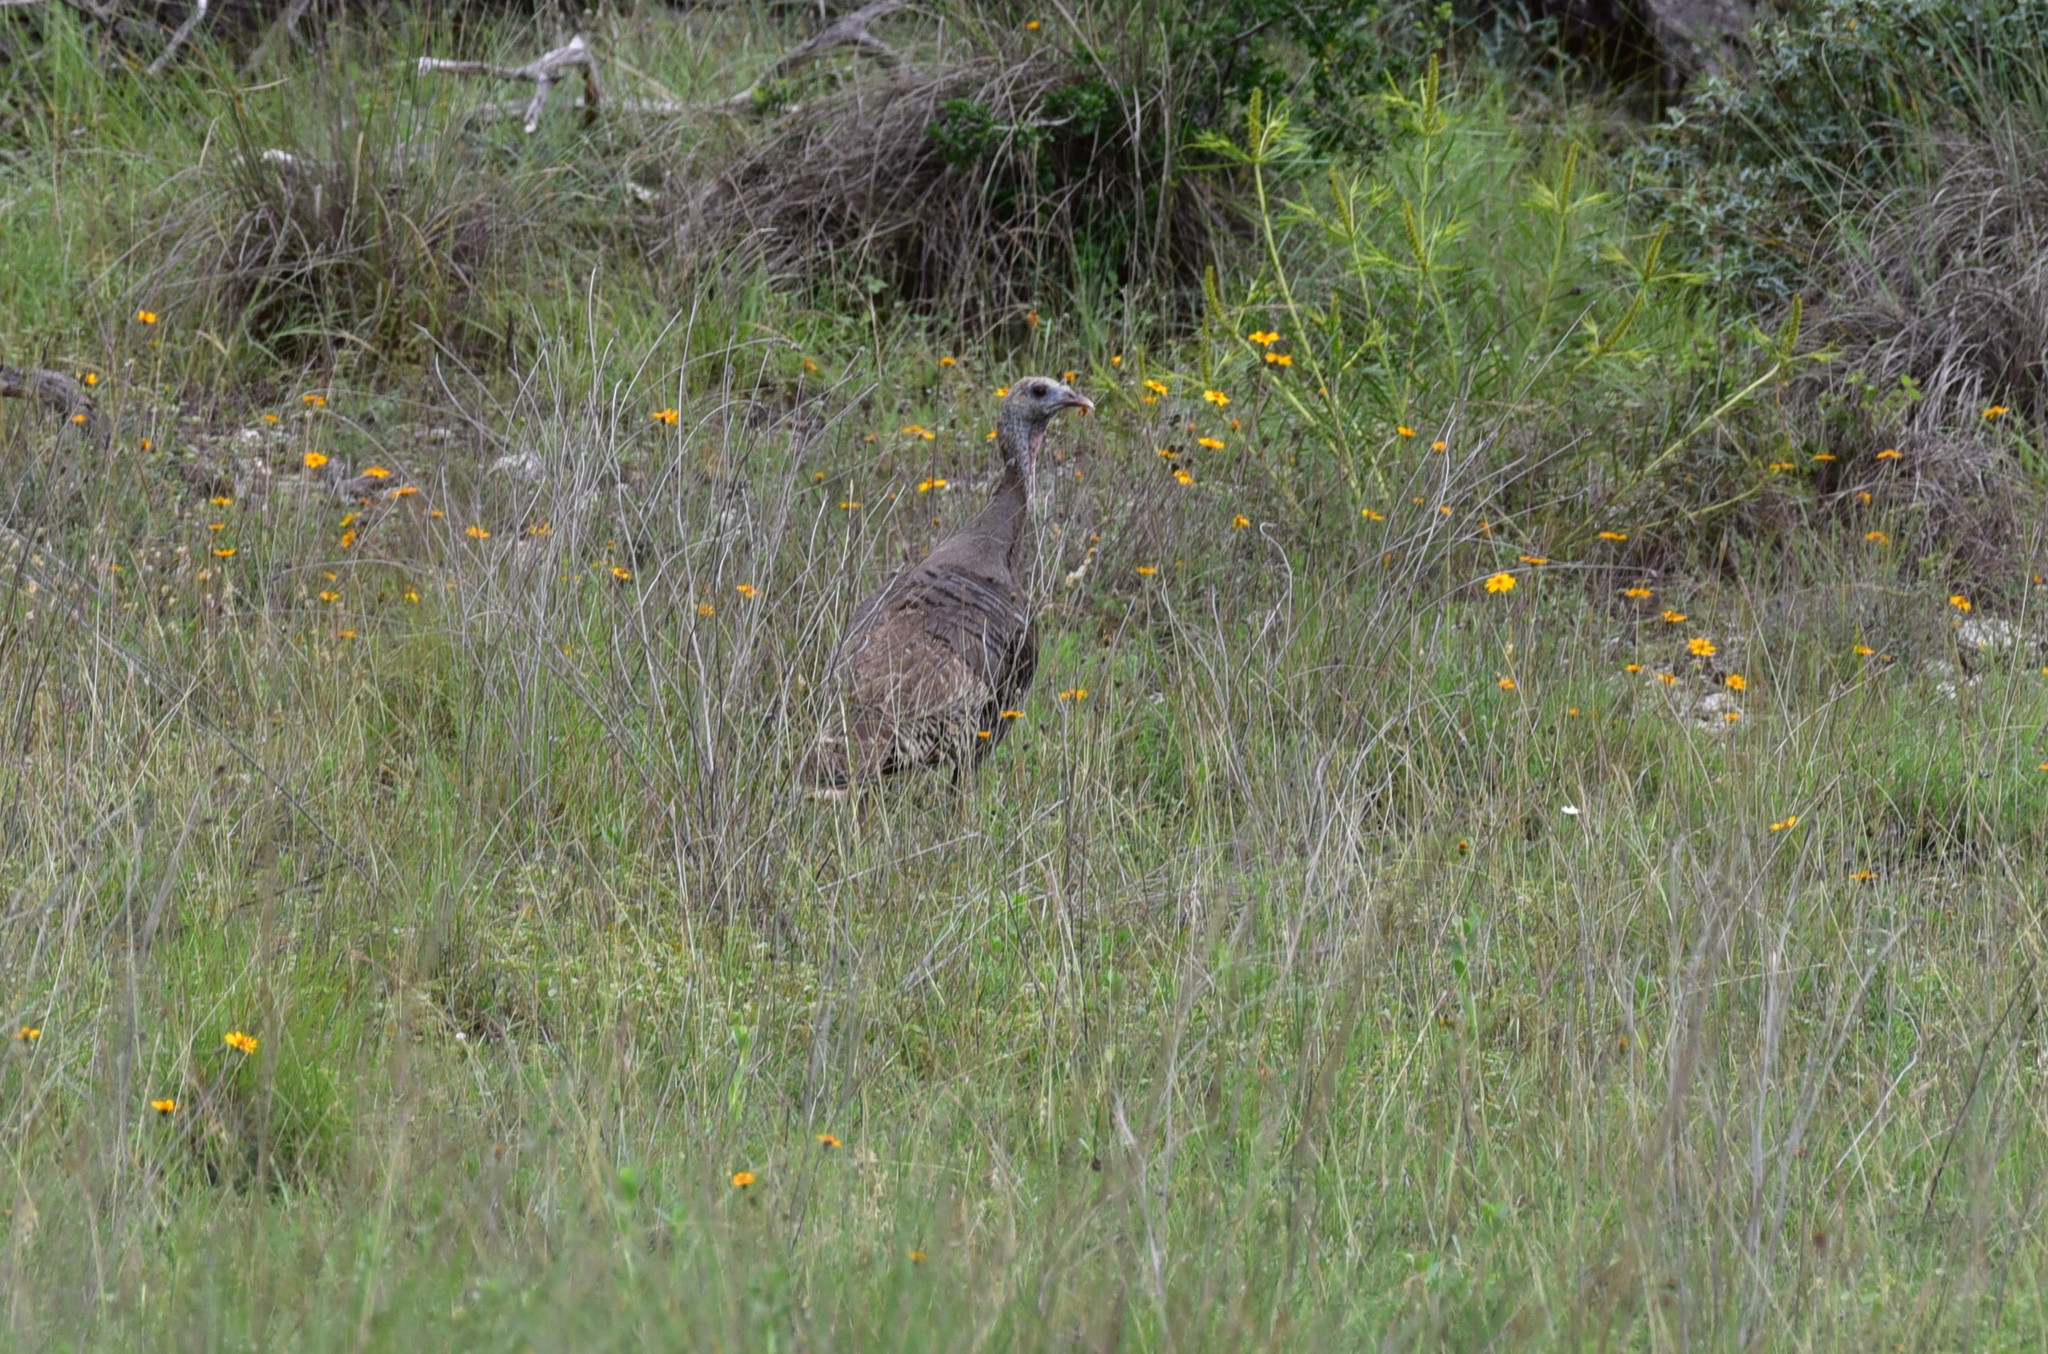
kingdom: Animalia
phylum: Chordata
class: Aves
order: Galliformes
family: Phasianidae
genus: Meleagris
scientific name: Meleagris gallopavo
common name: Wild turkey
